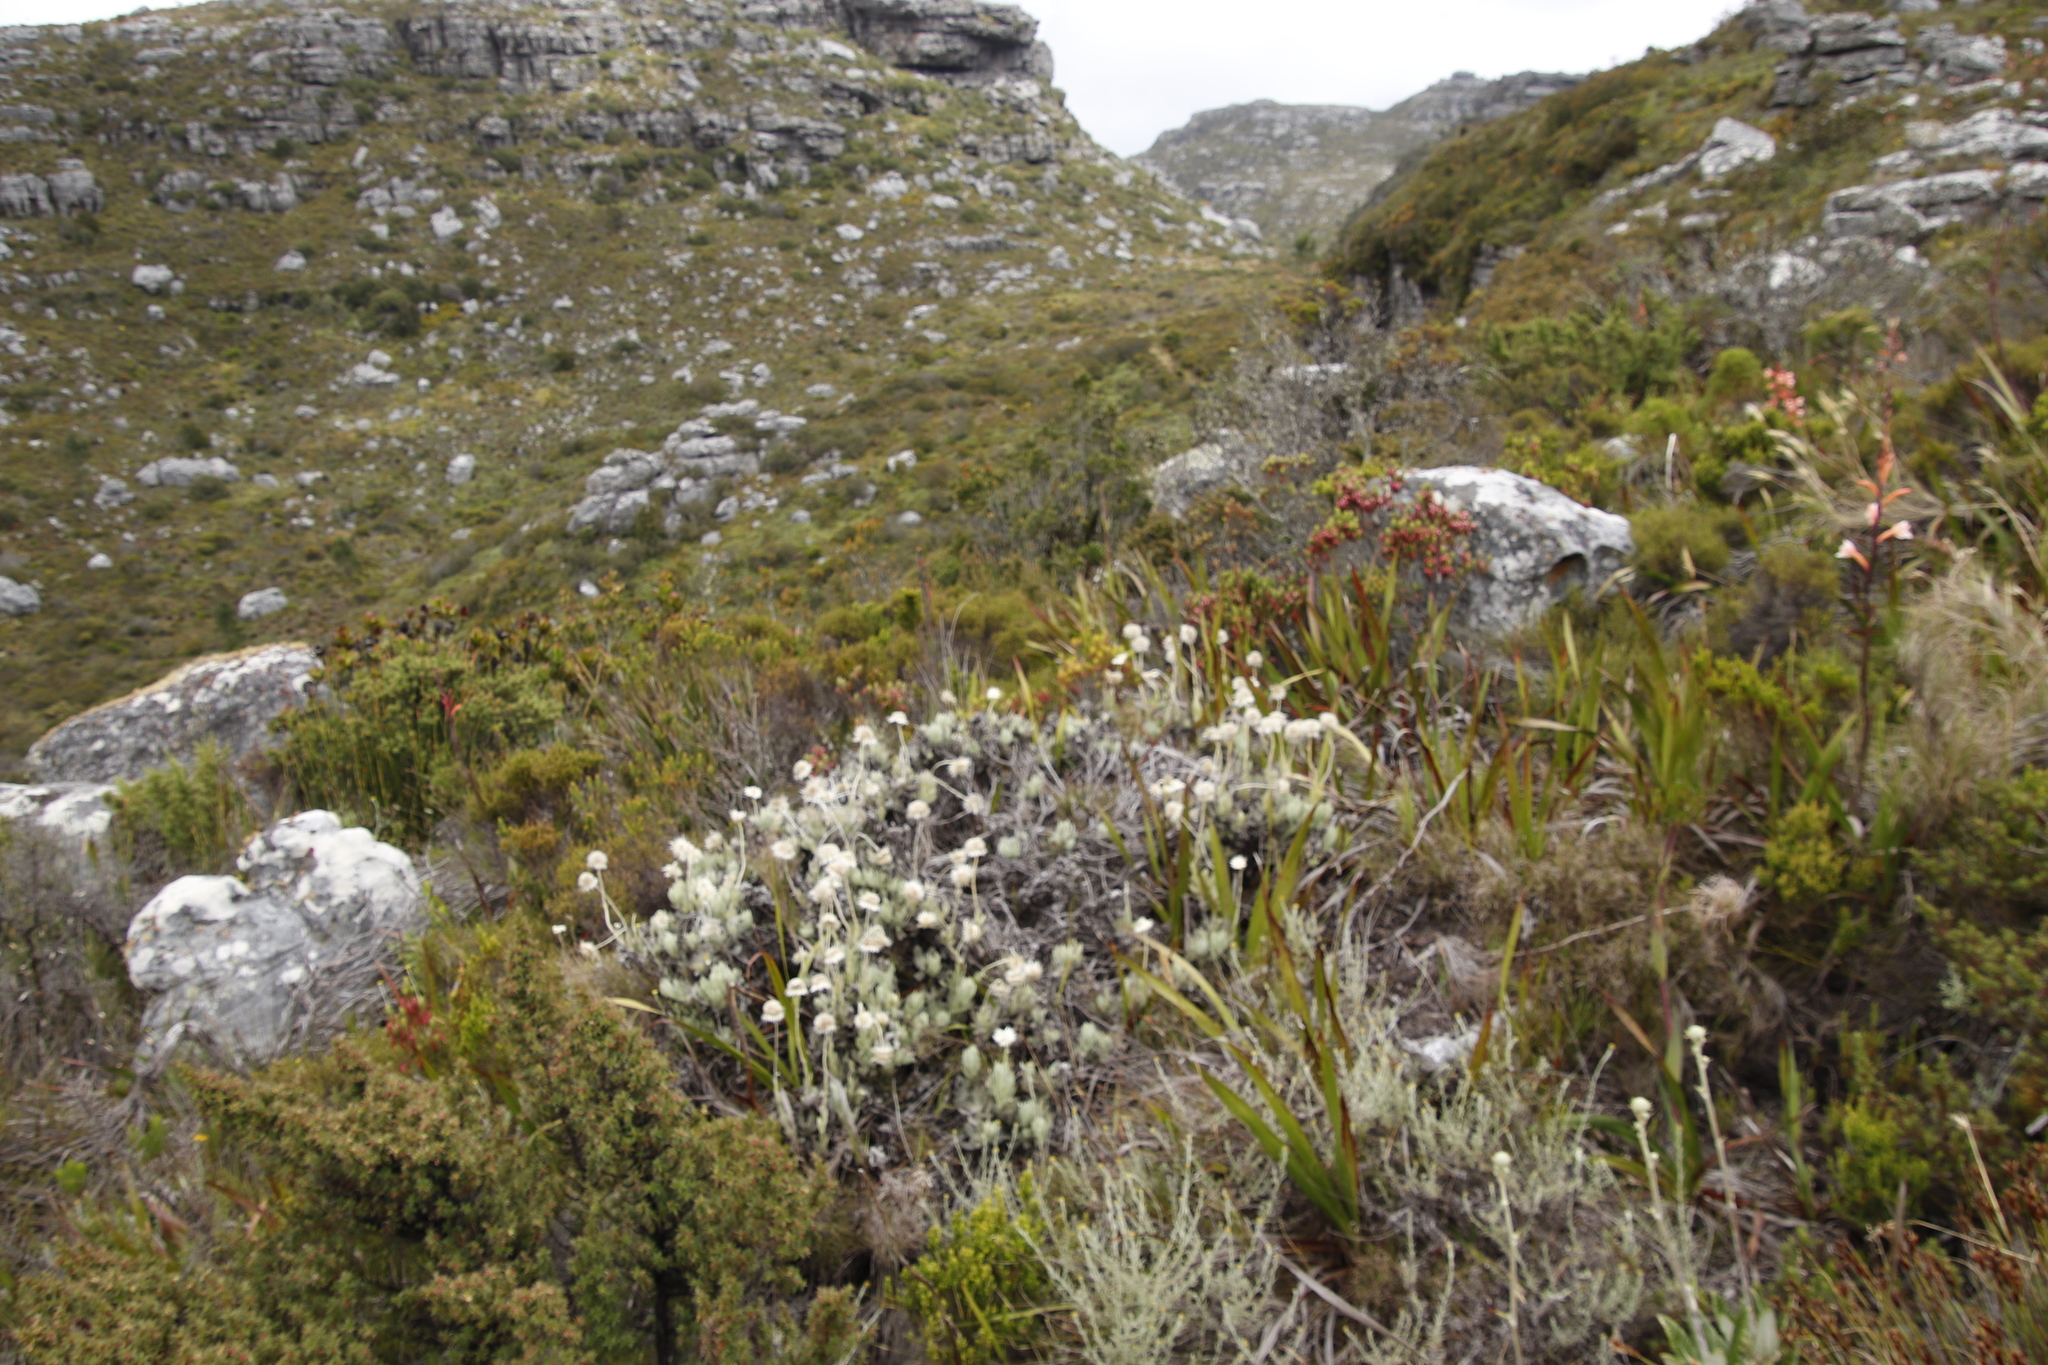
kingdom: Plantae
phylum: Tracheophyta
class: Magnoliopsida
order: Asterales
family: Asteraceae
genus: Syncarpha
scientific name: Syncarpha speciosissima
